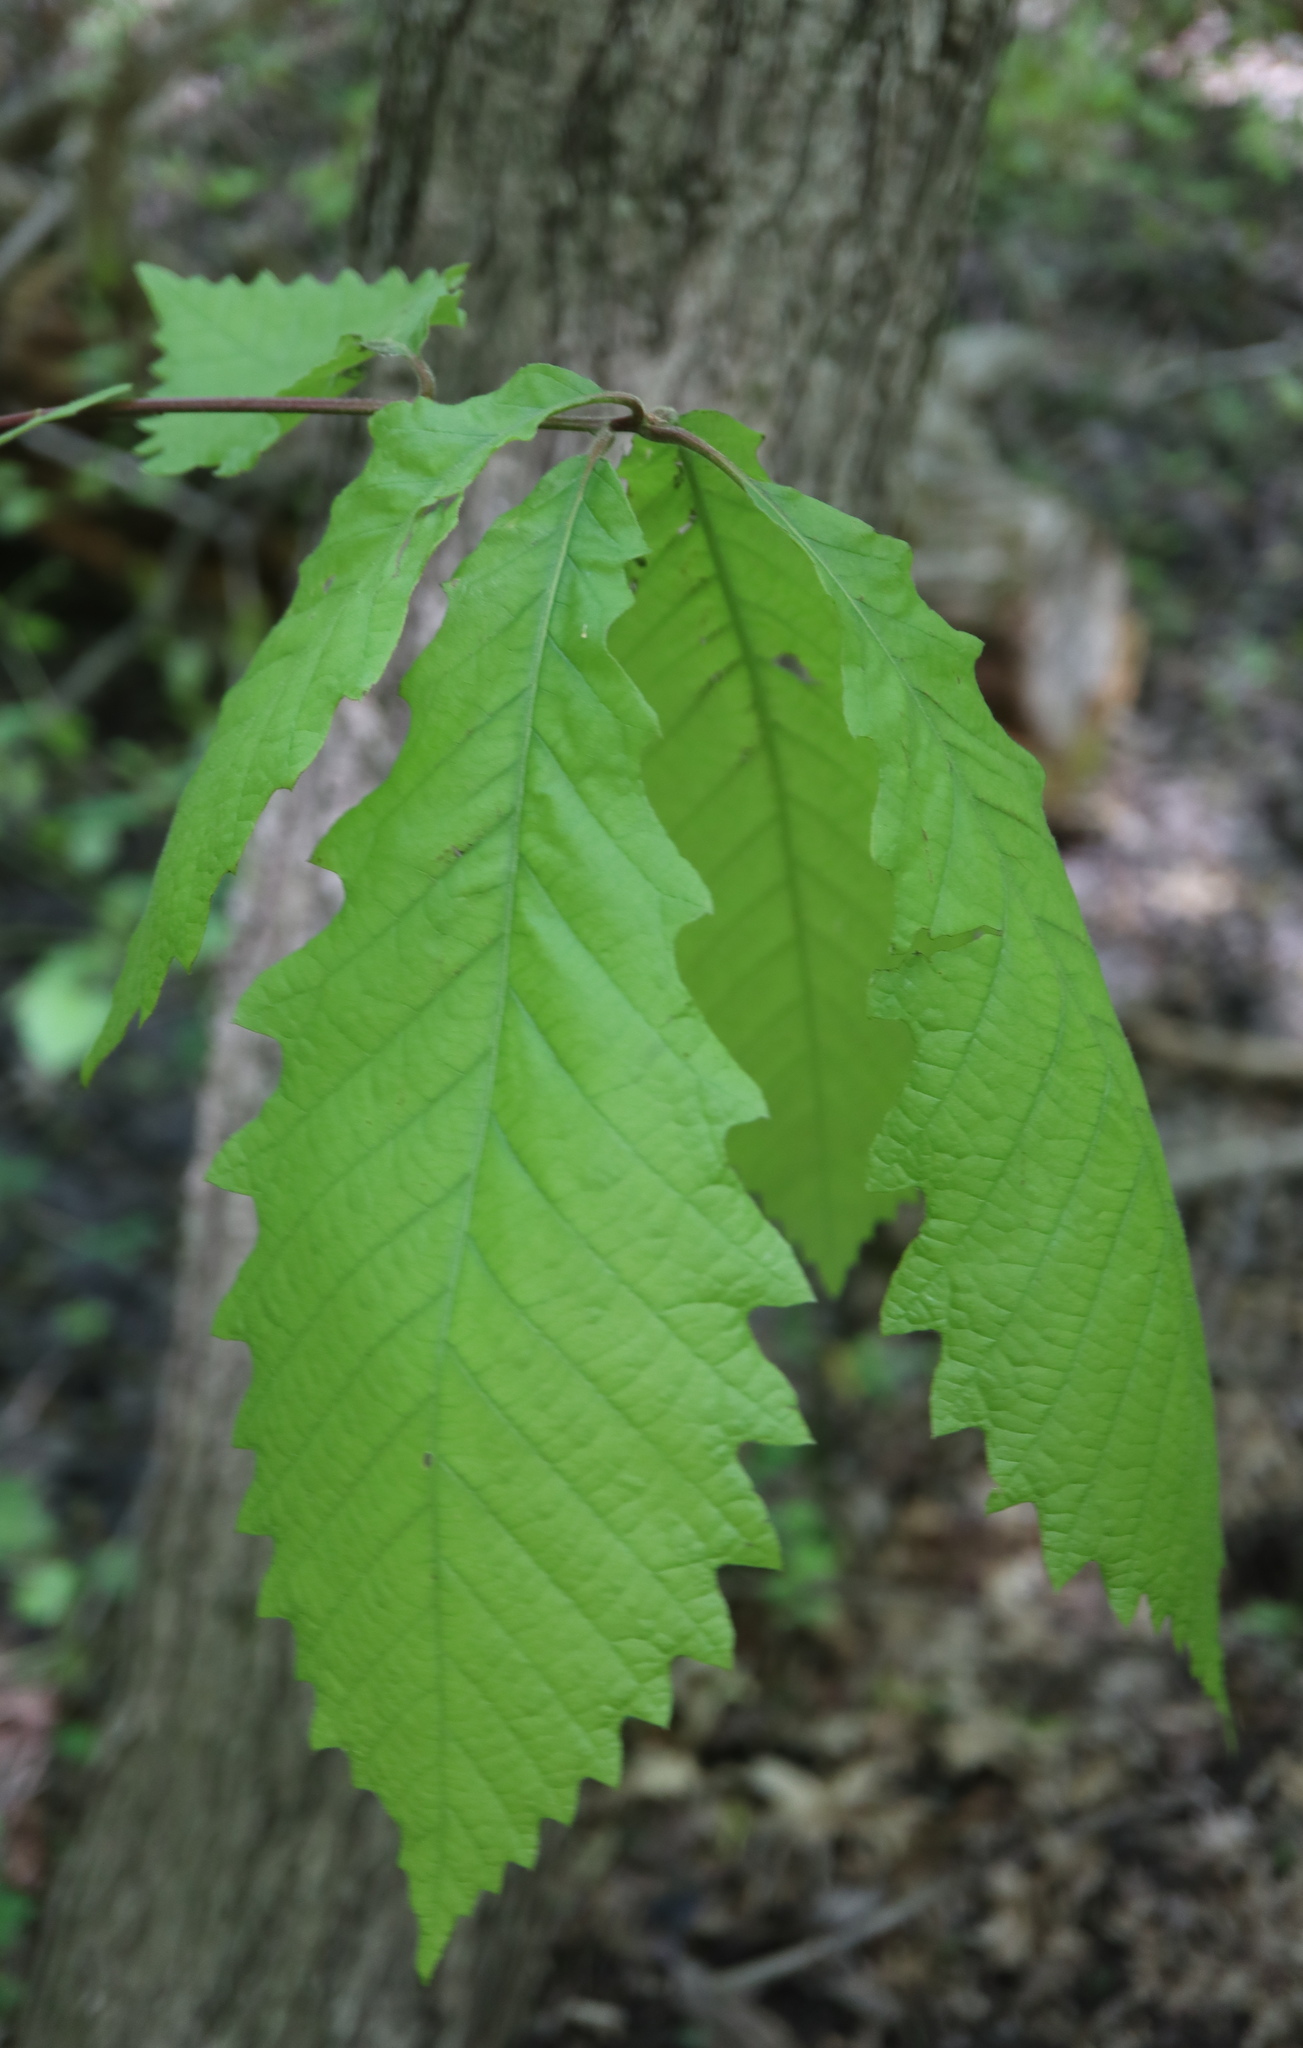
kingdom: Plantae
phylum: Tracheophyta
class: Magnoliopsida
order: Fagales
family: Fagaceae
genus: Quercus
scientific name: Quercus michauxii
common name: Swamp chestnut oak
